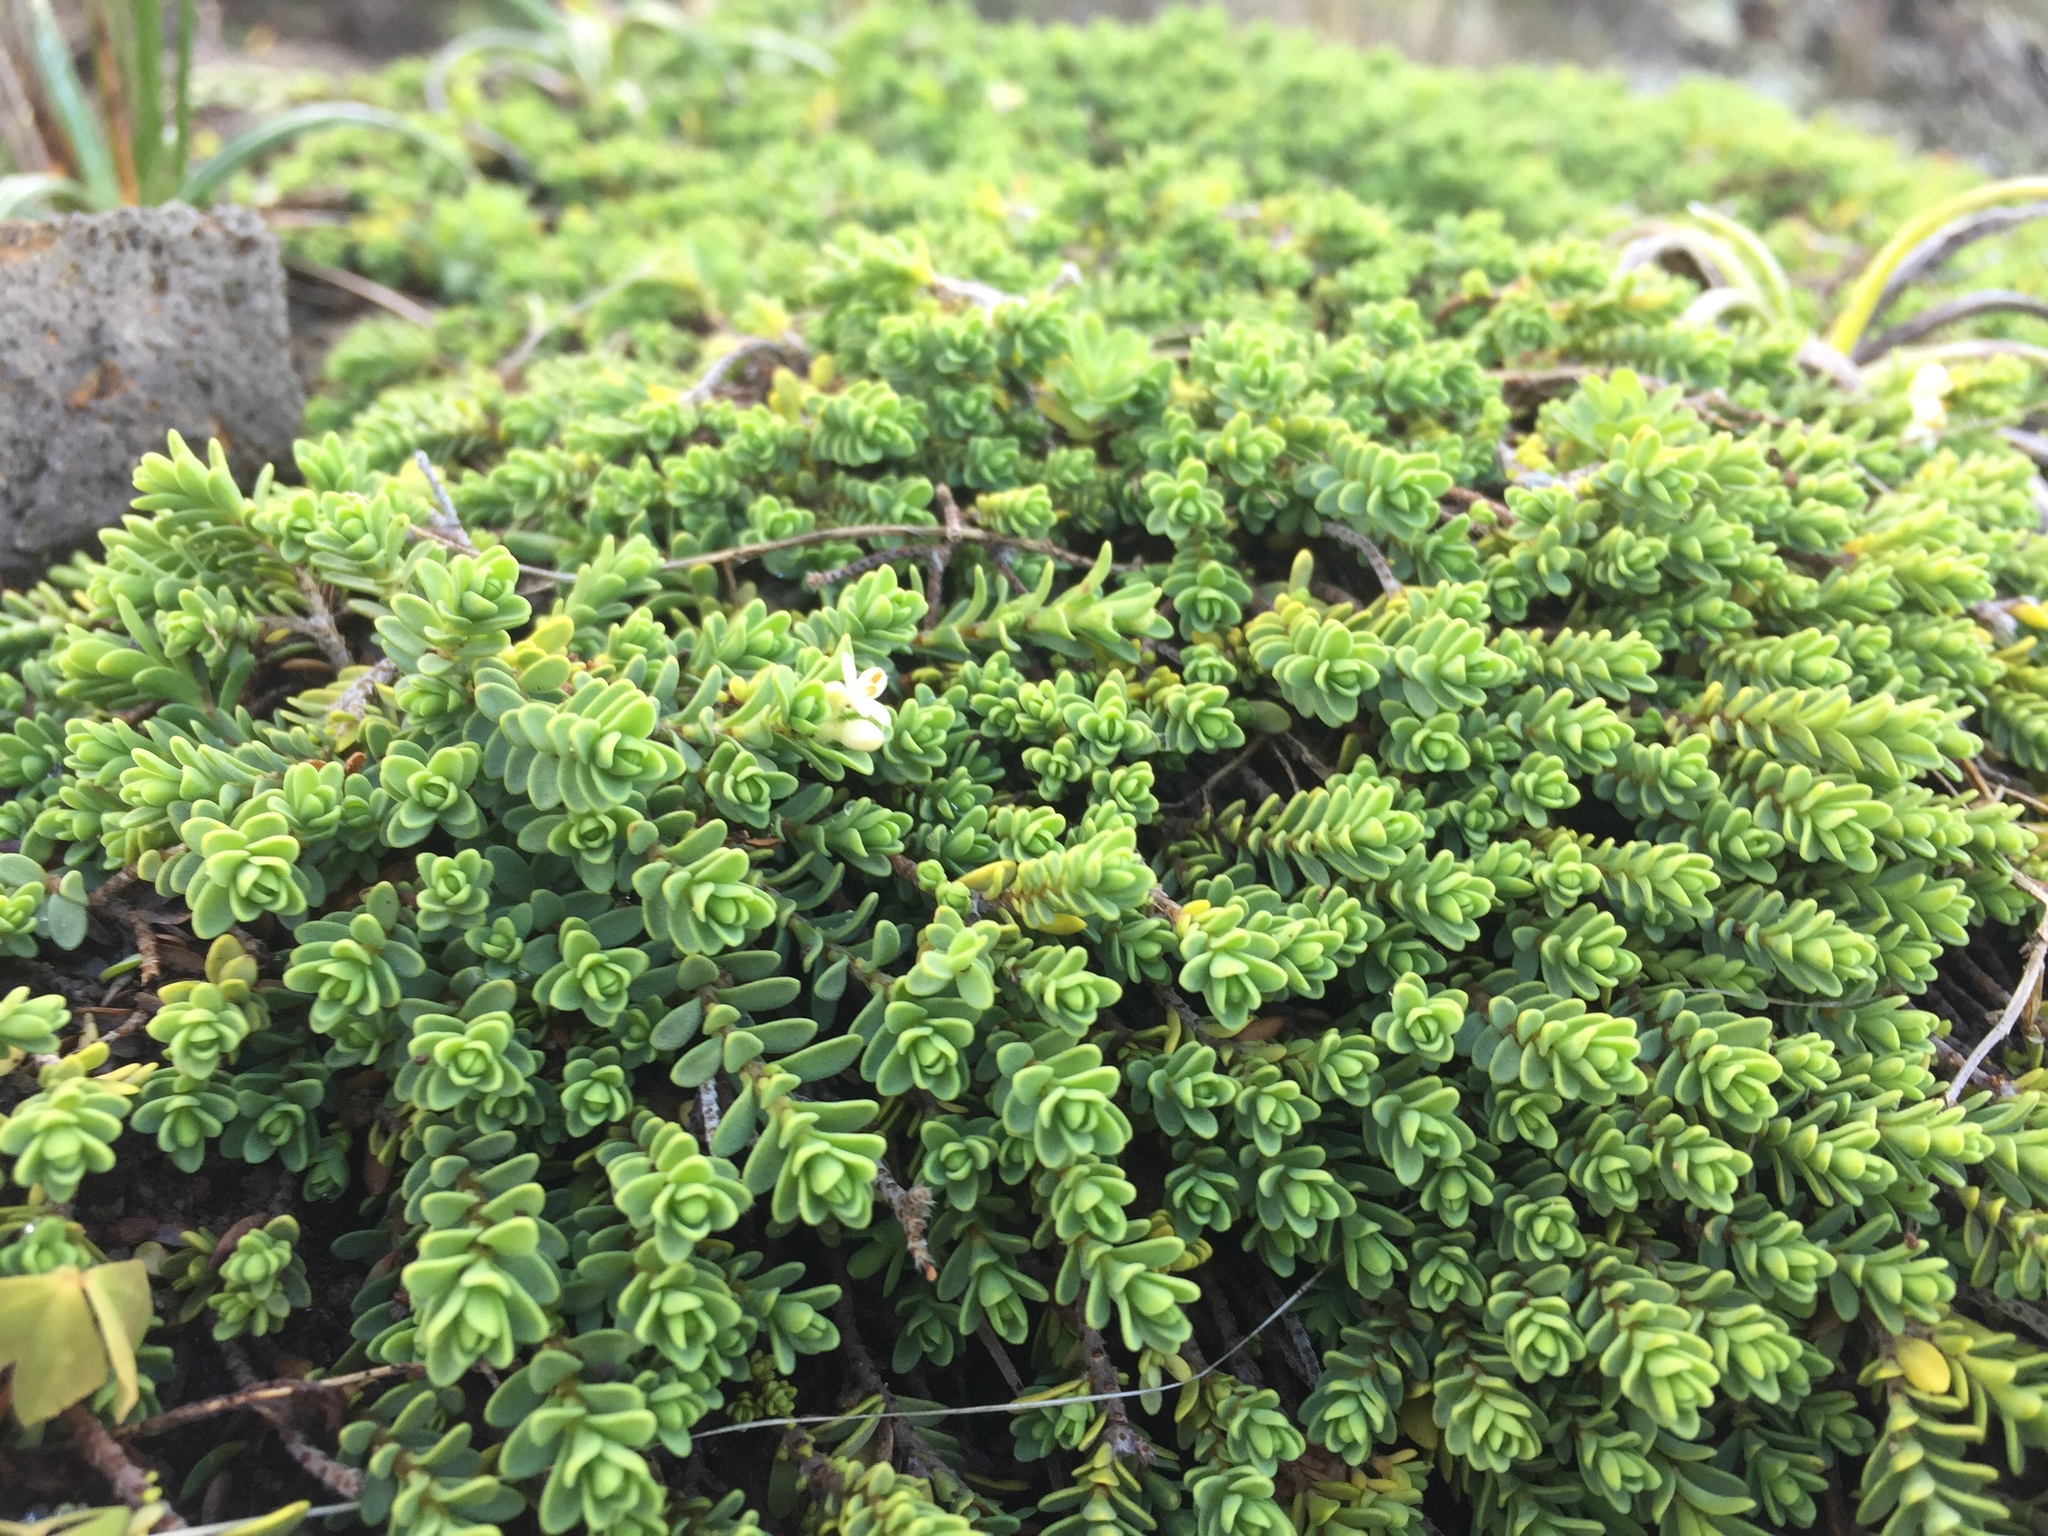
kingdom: Plantae
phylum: Tracheophyta
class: Magnoliopsida
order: Malvales
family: Thymelaeaceae
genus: Pimelea
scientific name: Pimelea prostrata
